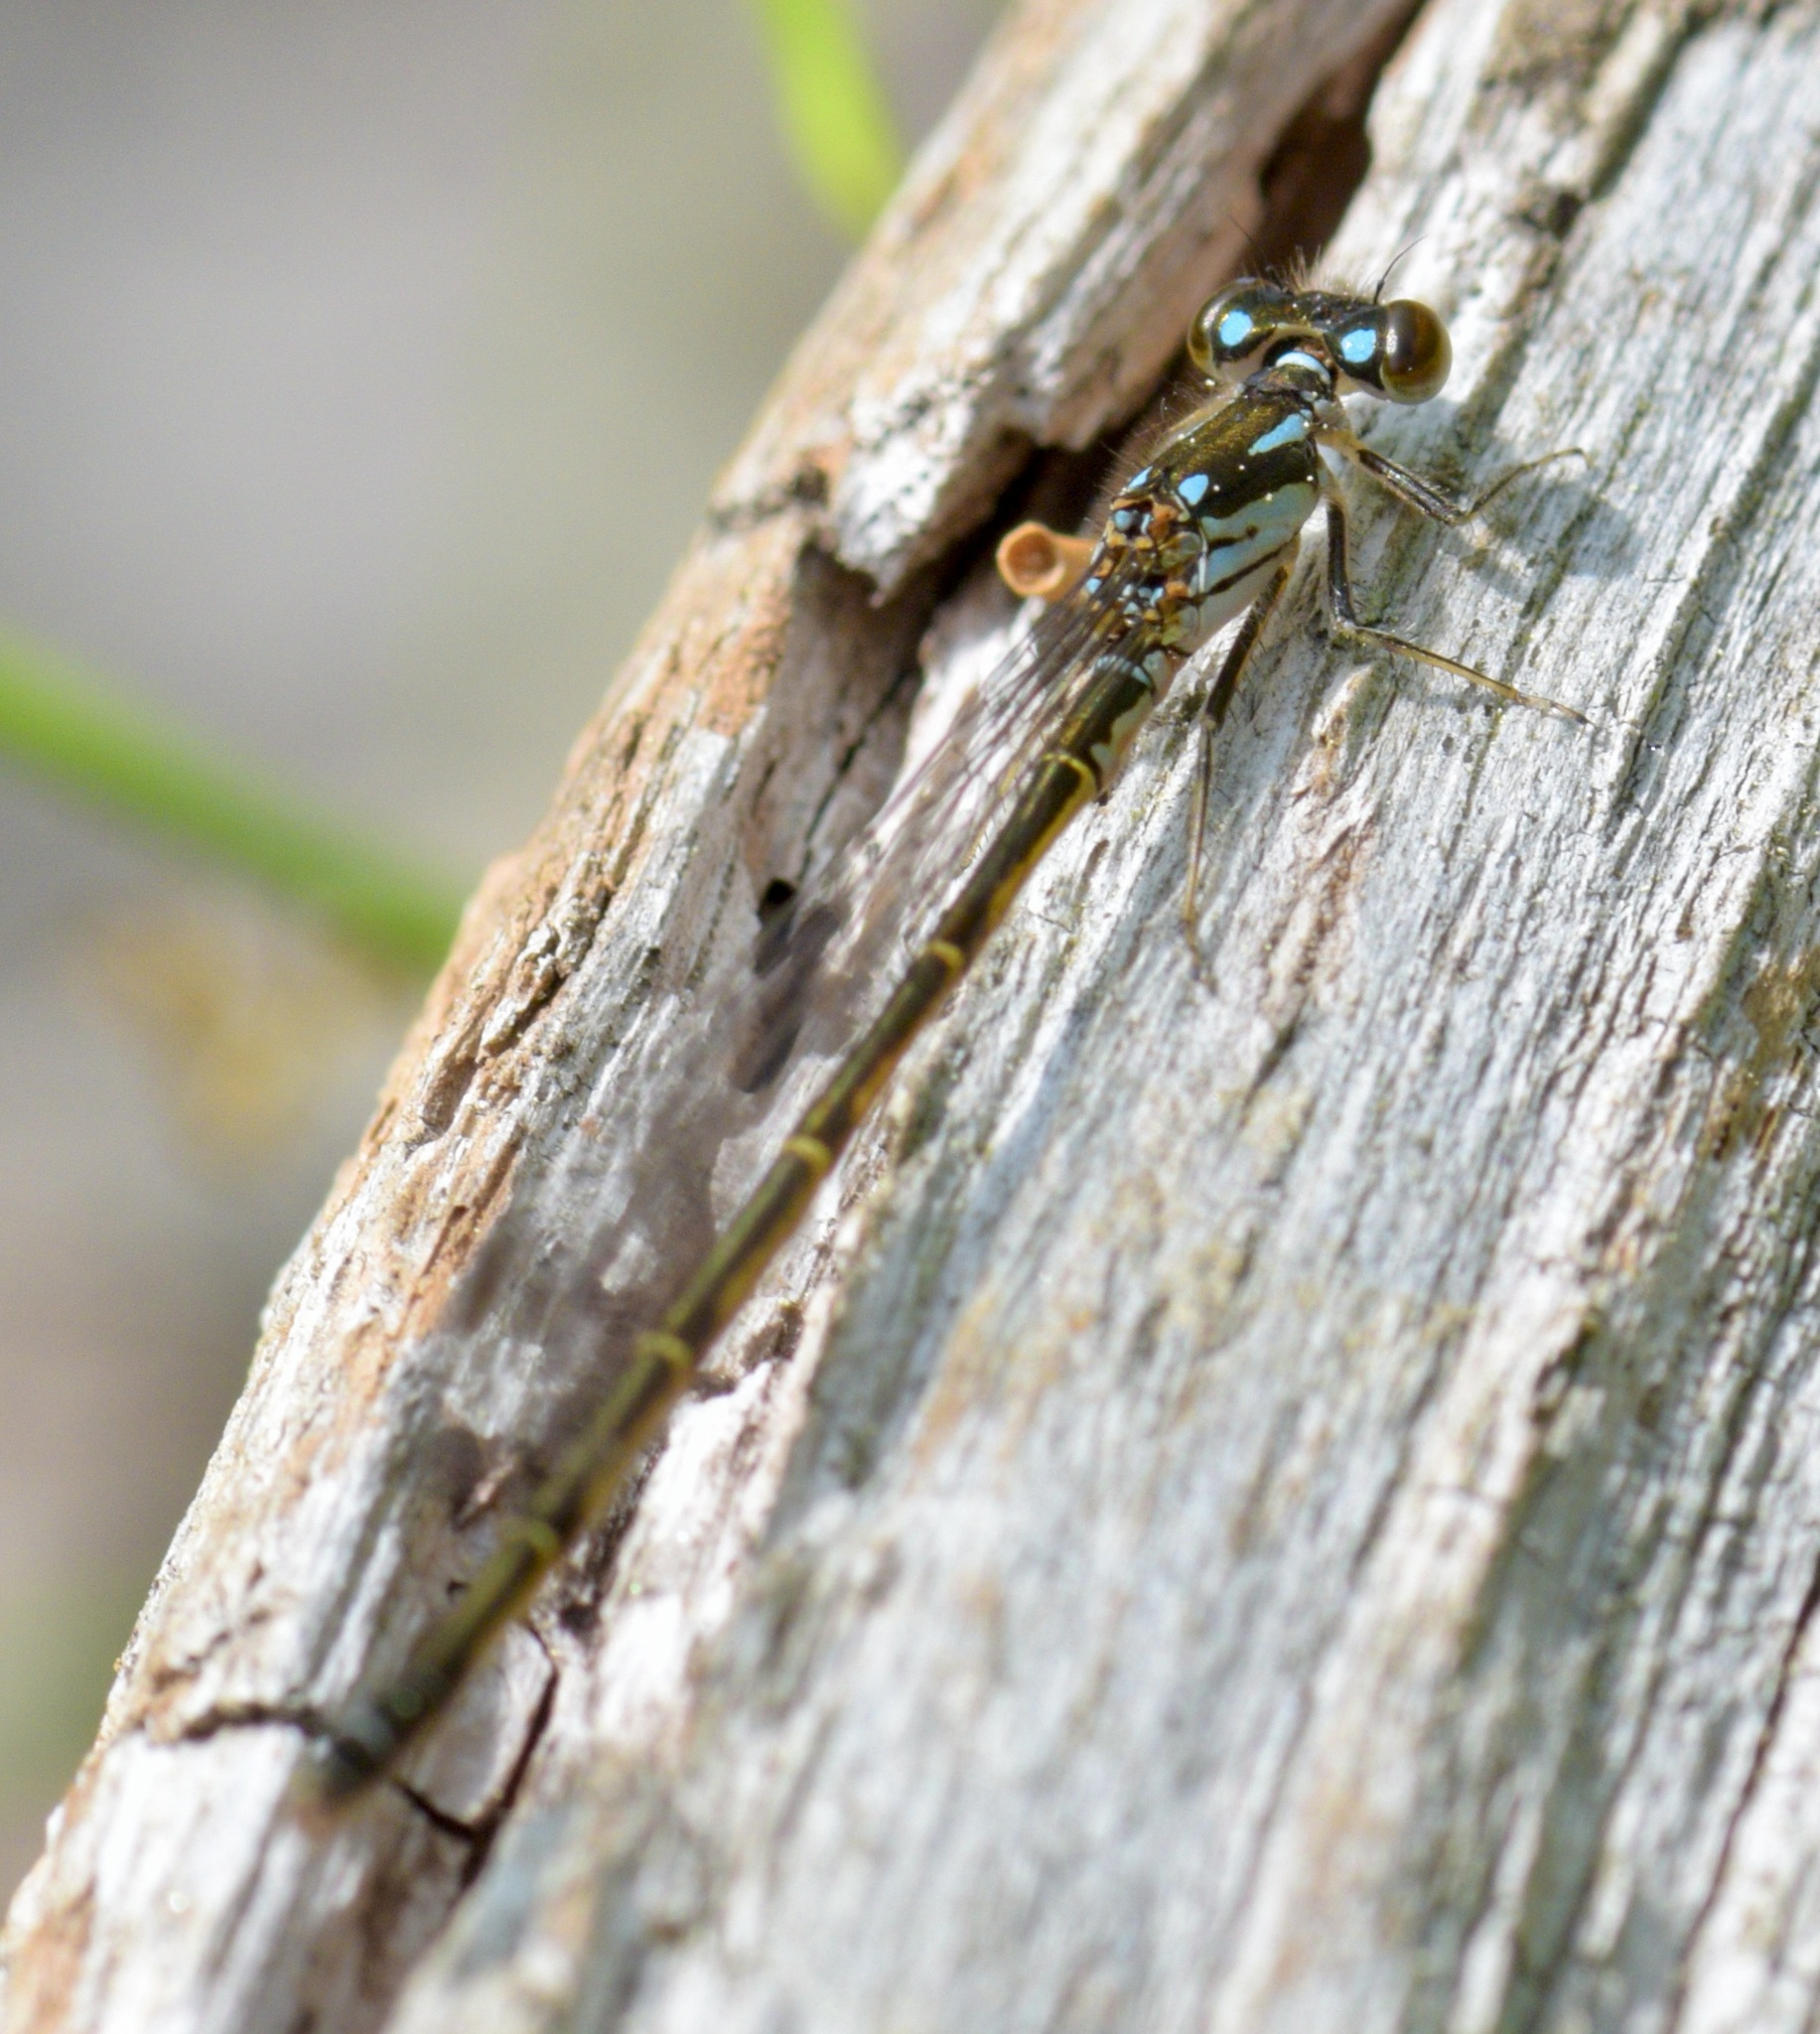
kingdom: Animalia
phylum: Arthropoda
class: Insecta
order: Odonata
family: Coenagrionidae
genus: Ischnura
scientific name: Ischnura posita
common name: Fragile forktail
